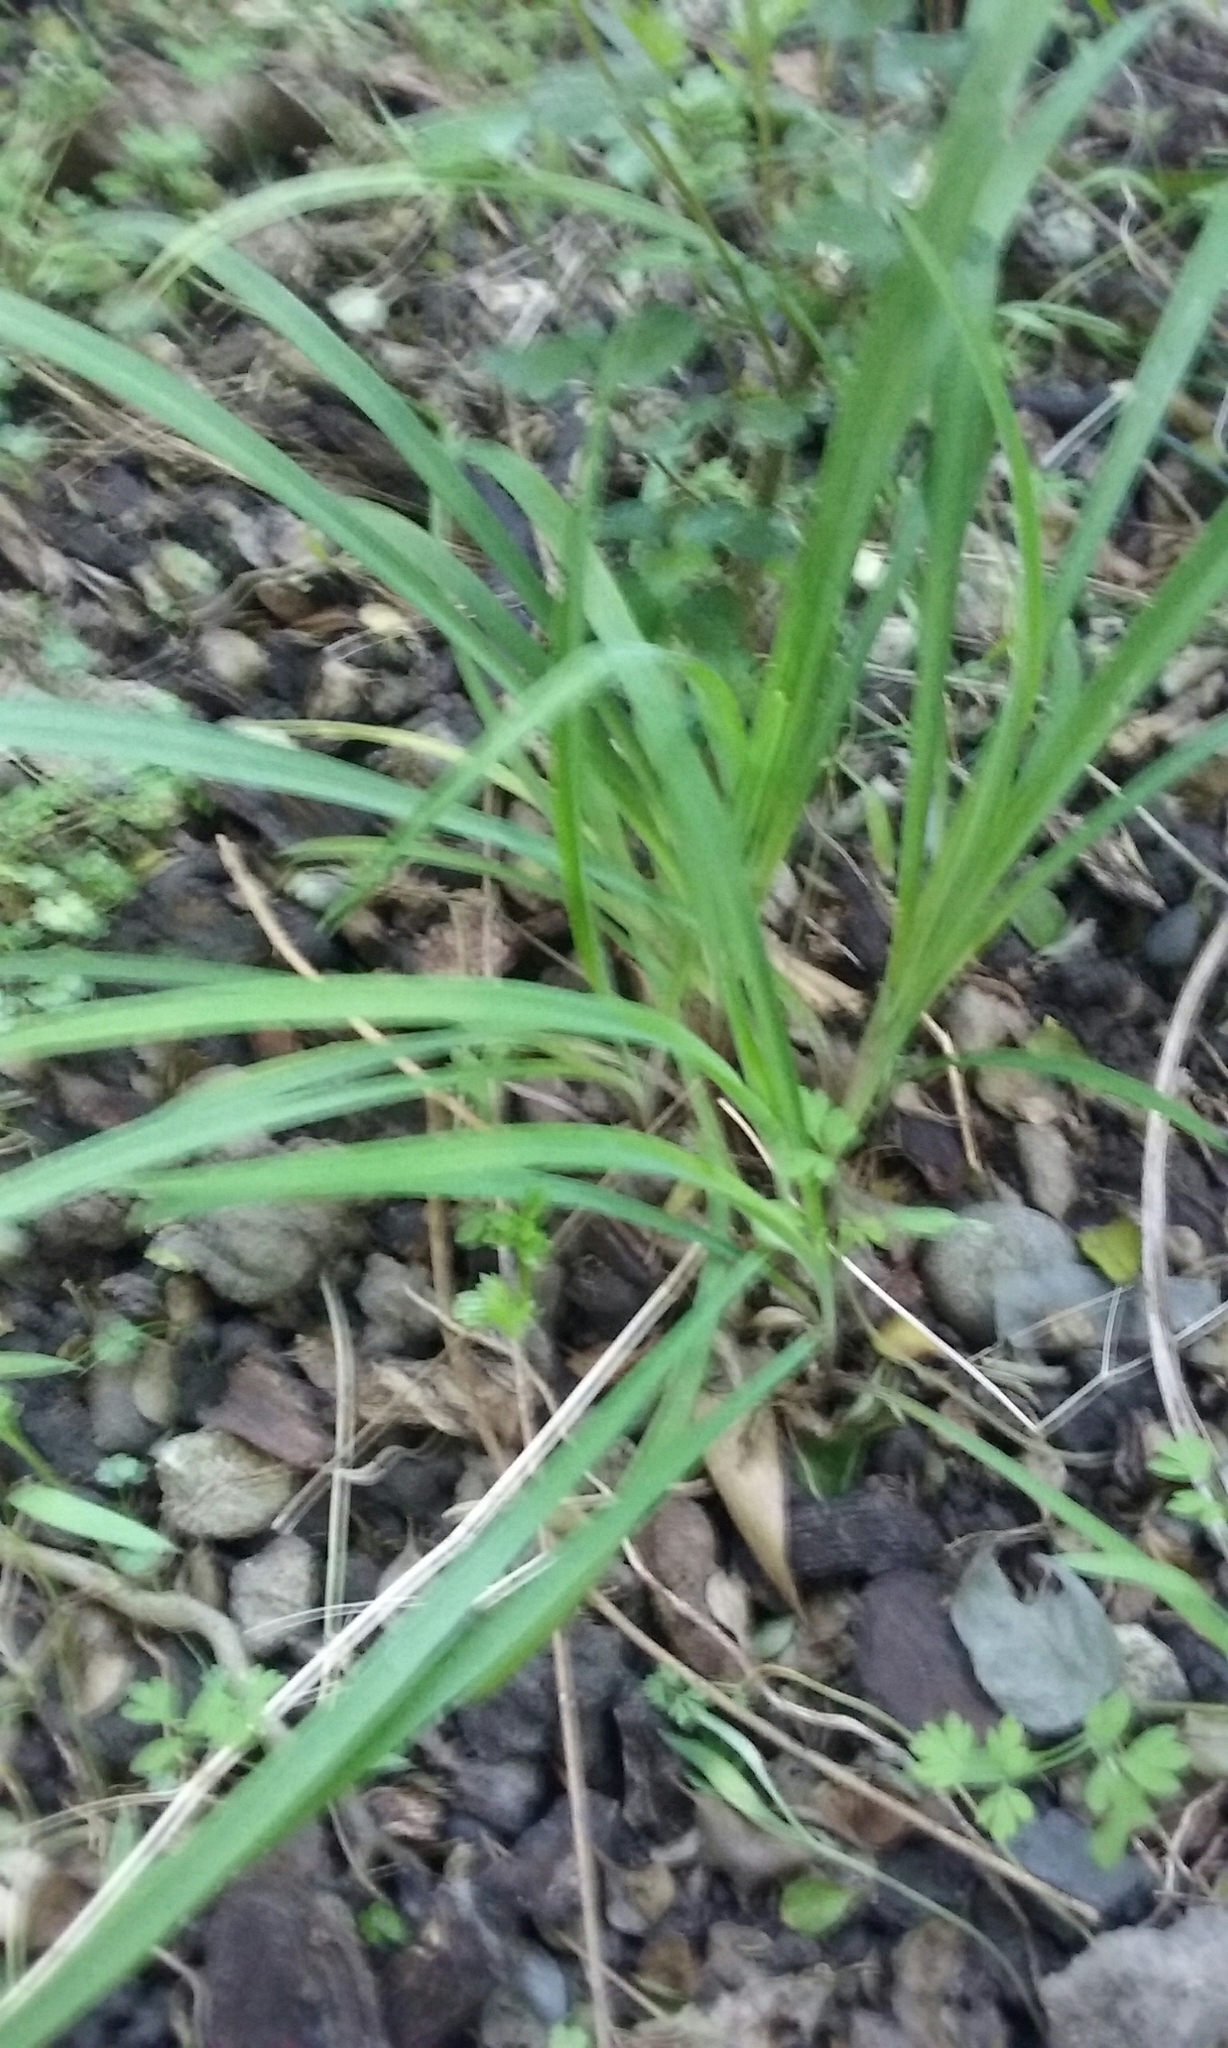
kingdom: Plantae
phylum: Tracheophyta
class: Liliopsida
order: Asparagales
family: Asparagaceae
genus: Arthropodium
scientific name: Arthropodium candidum
